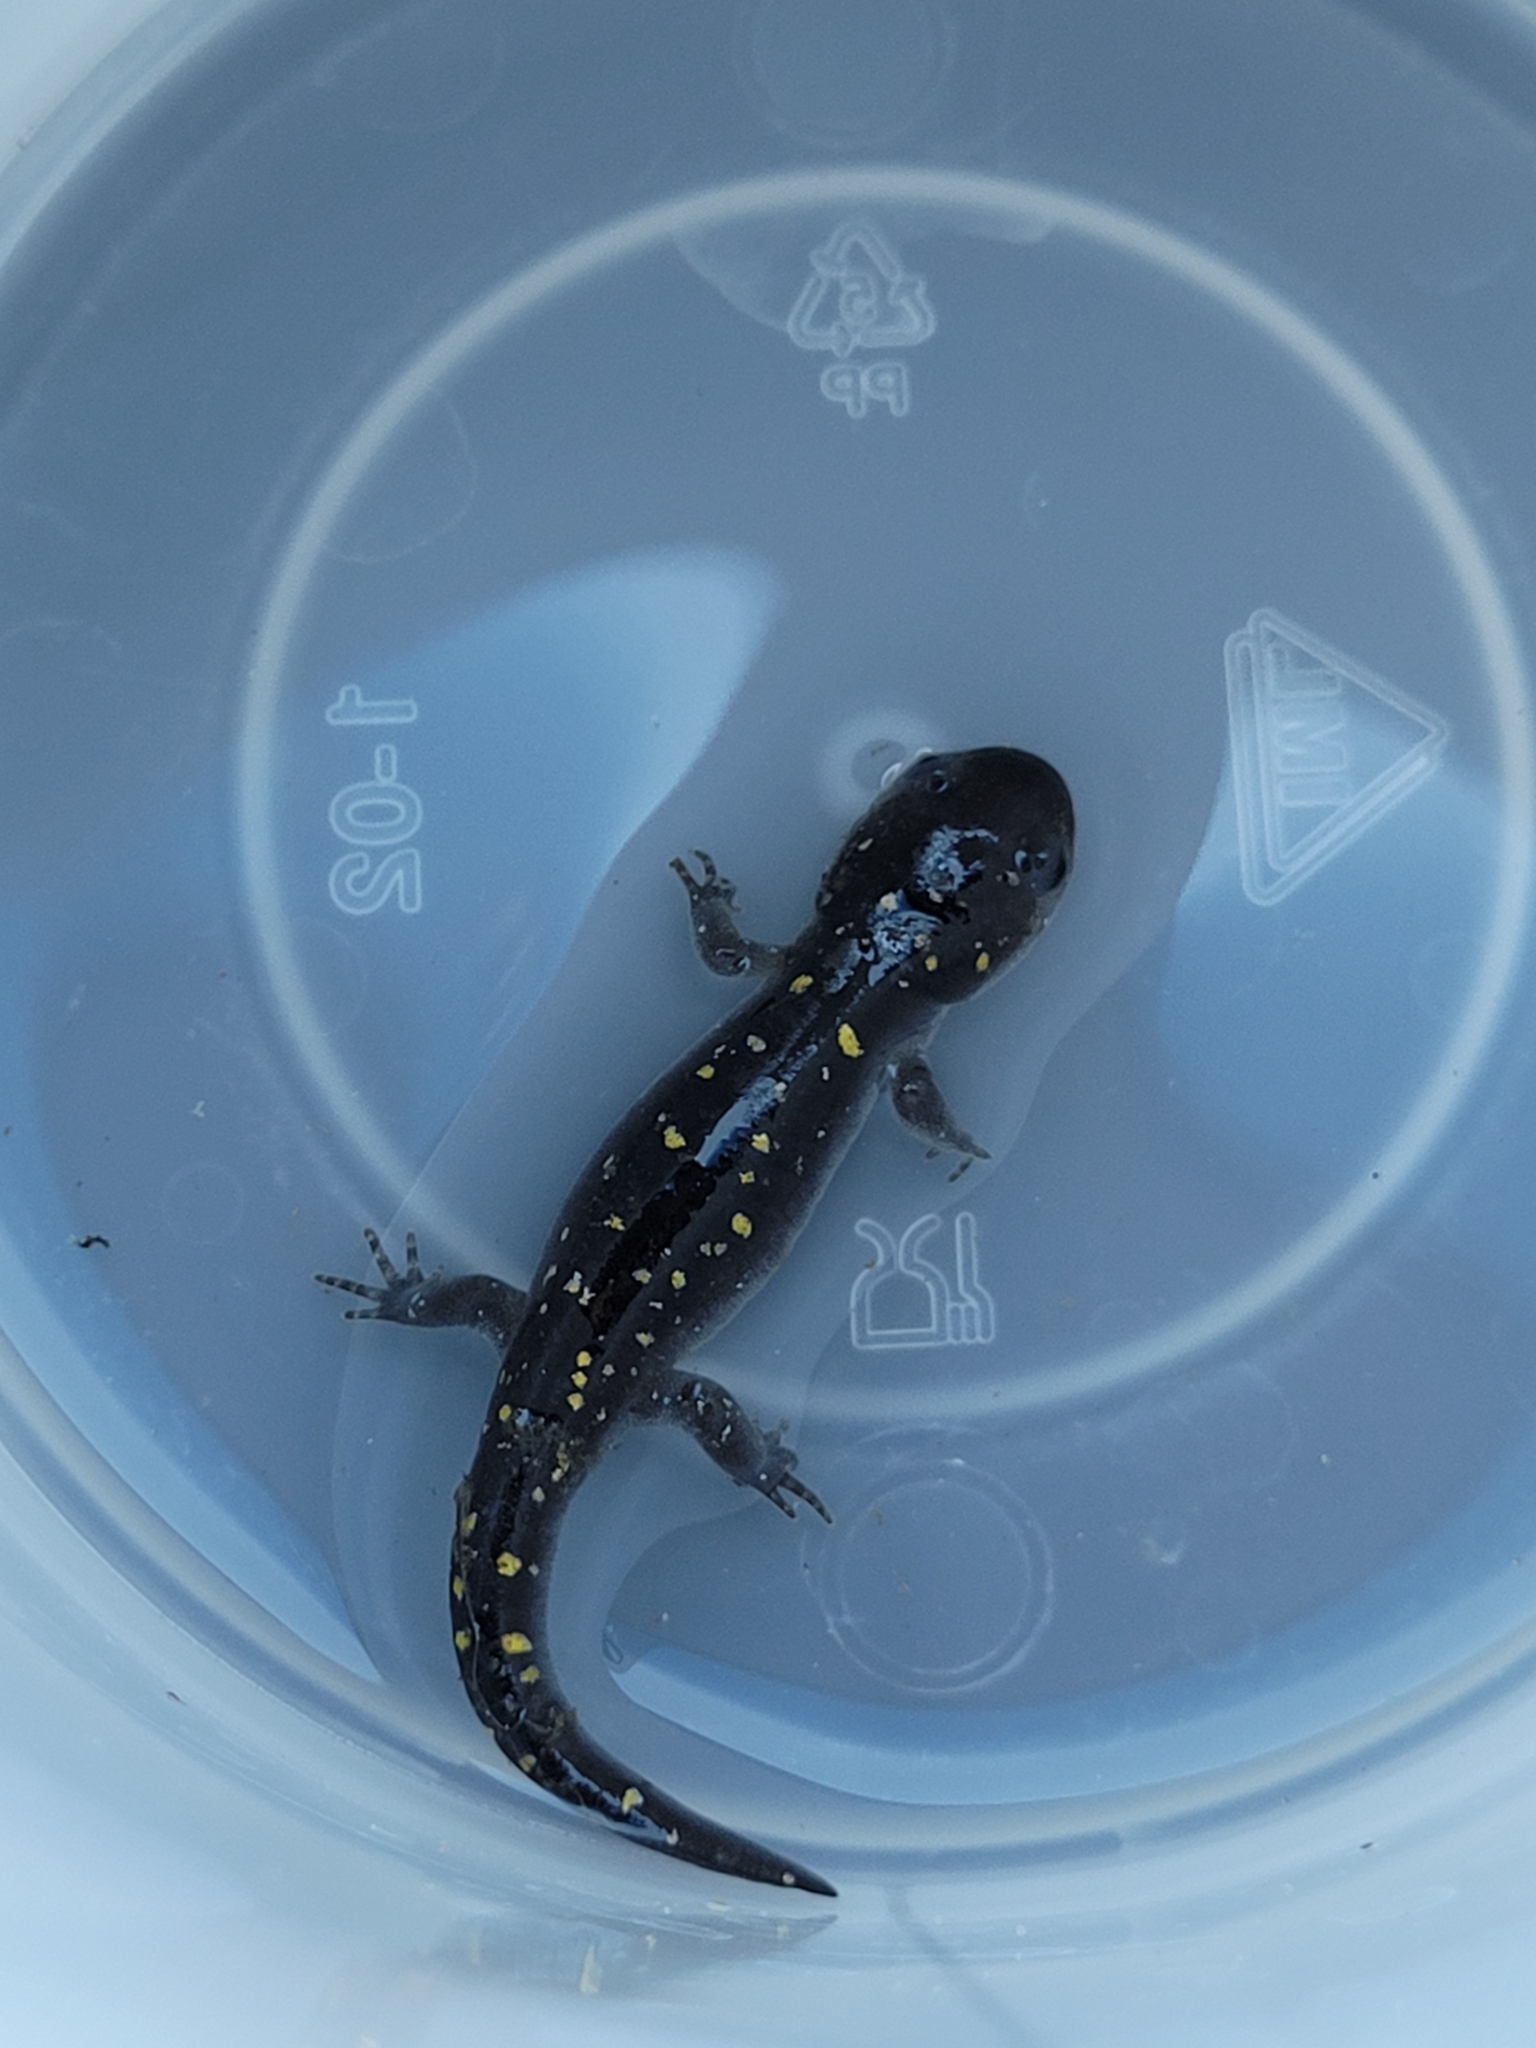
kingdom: Animalia
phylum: Chordata
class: Amphibia
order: Caudata
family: Ambystomatidae
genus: Ambystoma
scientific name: Ambystoma maculatum
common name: Spotted salamander
